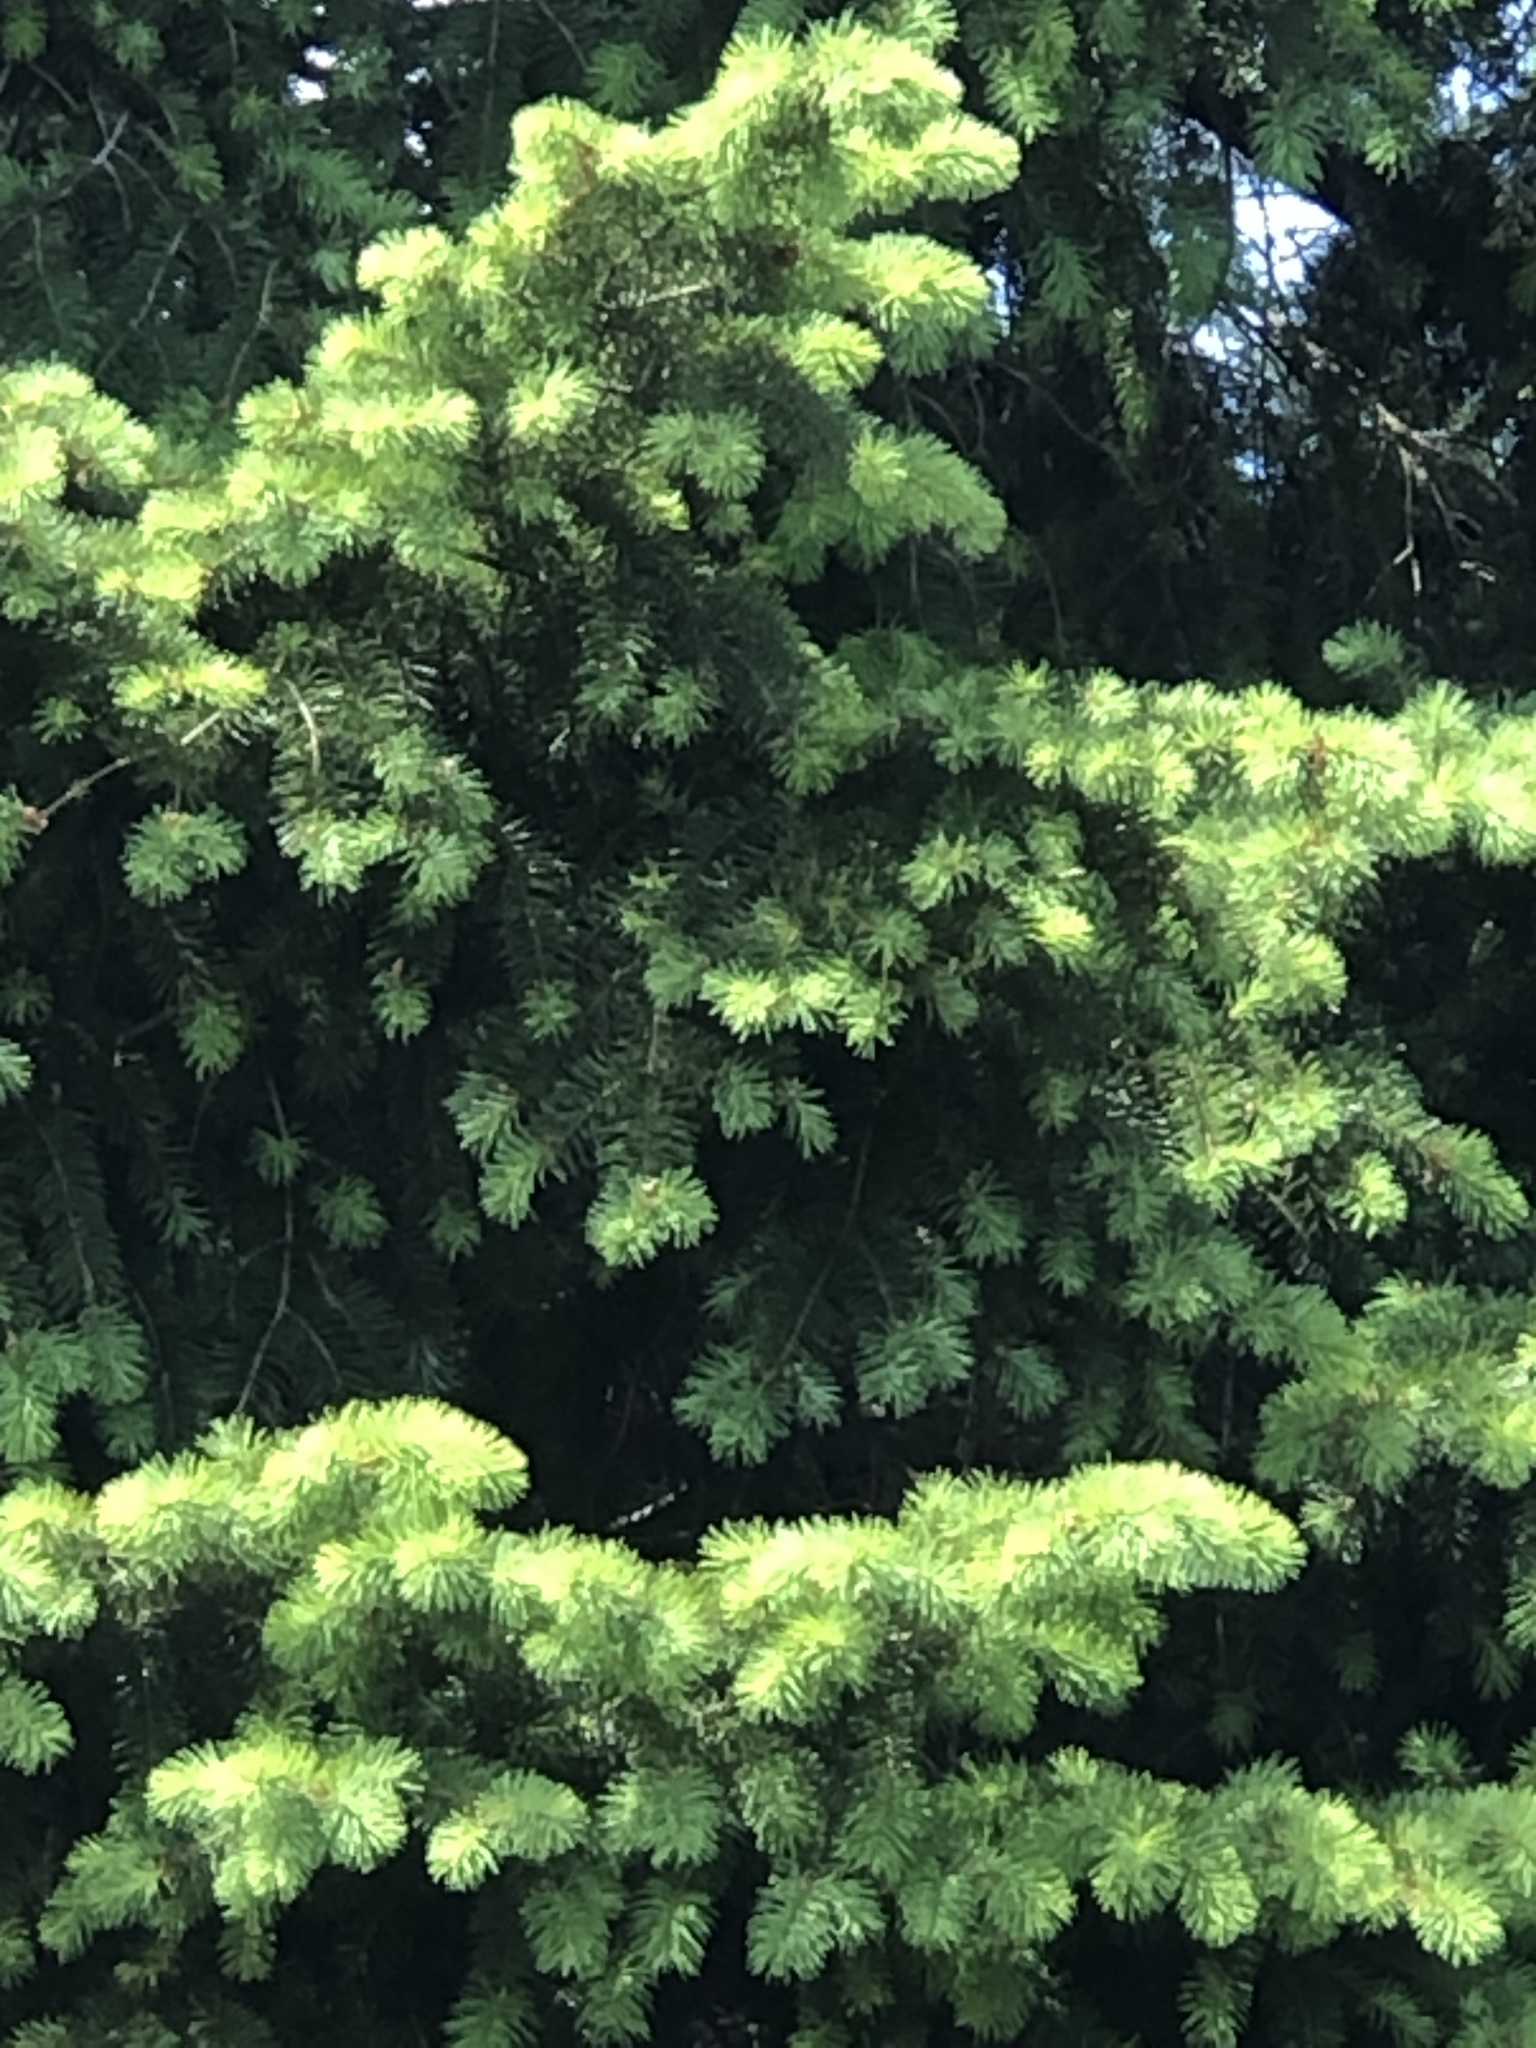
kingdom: Plantae
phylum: Tracheophyta
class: Pinopsida
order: Pinales
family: Pinaceae
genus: Pseudotsuga
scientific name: Pseudotsuga menziesii
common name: Douglas fir
